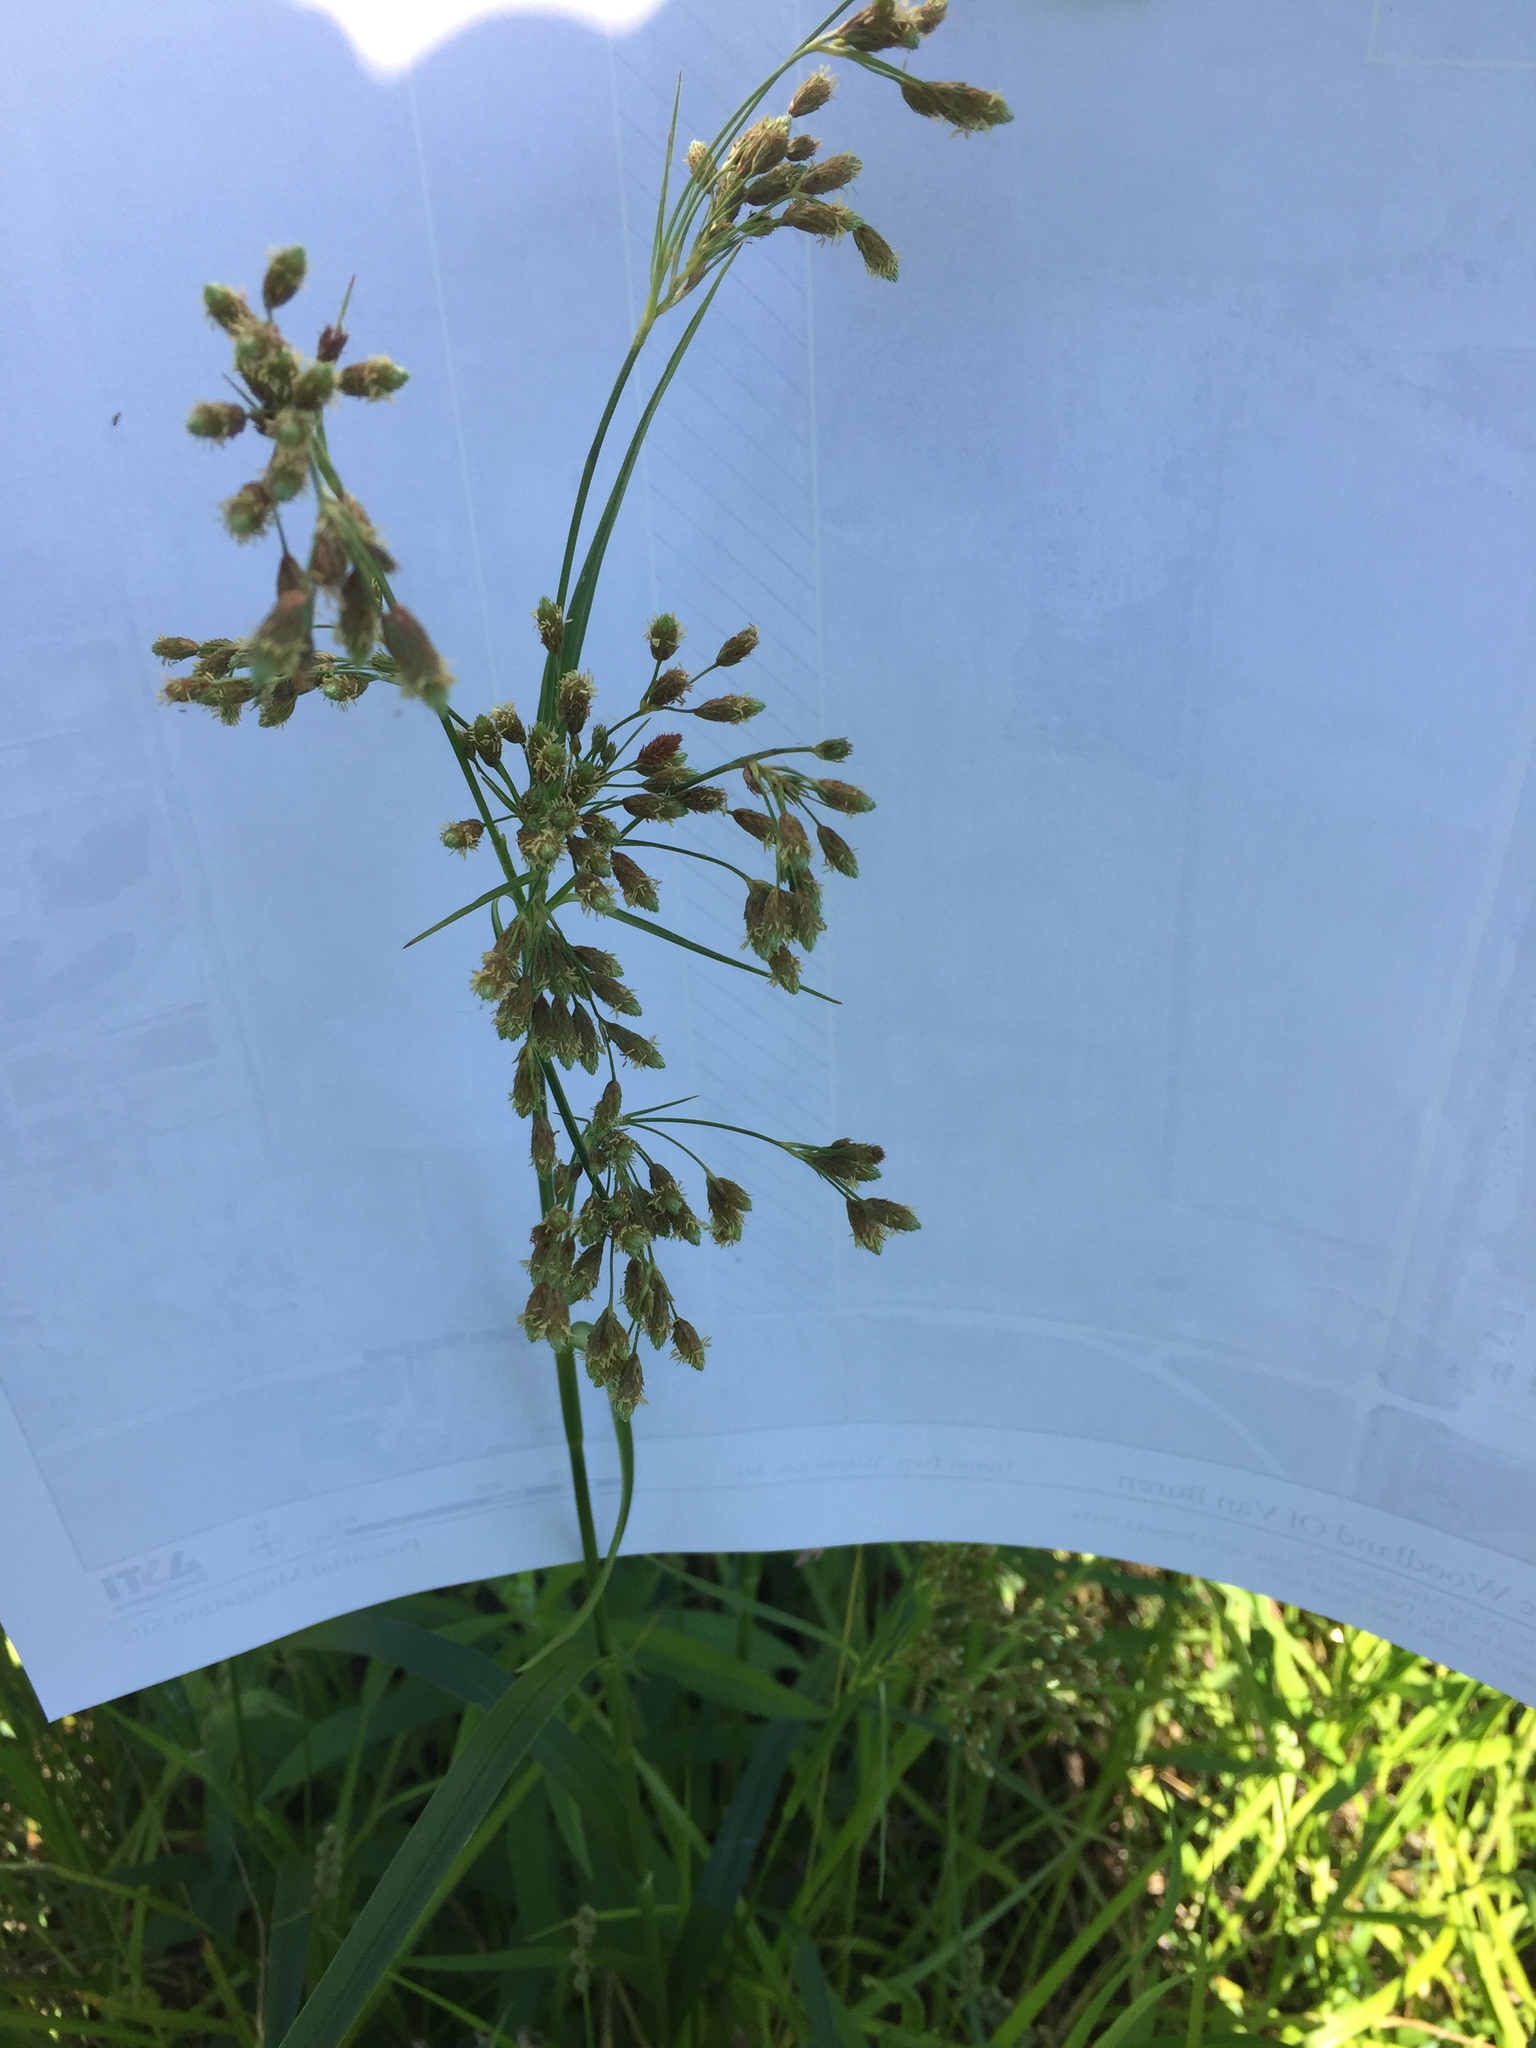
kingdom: Plantae
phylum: Tracheophyta
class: Liliopsida
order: Poales
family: Cyperaceae
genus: Scirpus
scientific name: Scirpus pendulus
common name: Nodding bulrush
